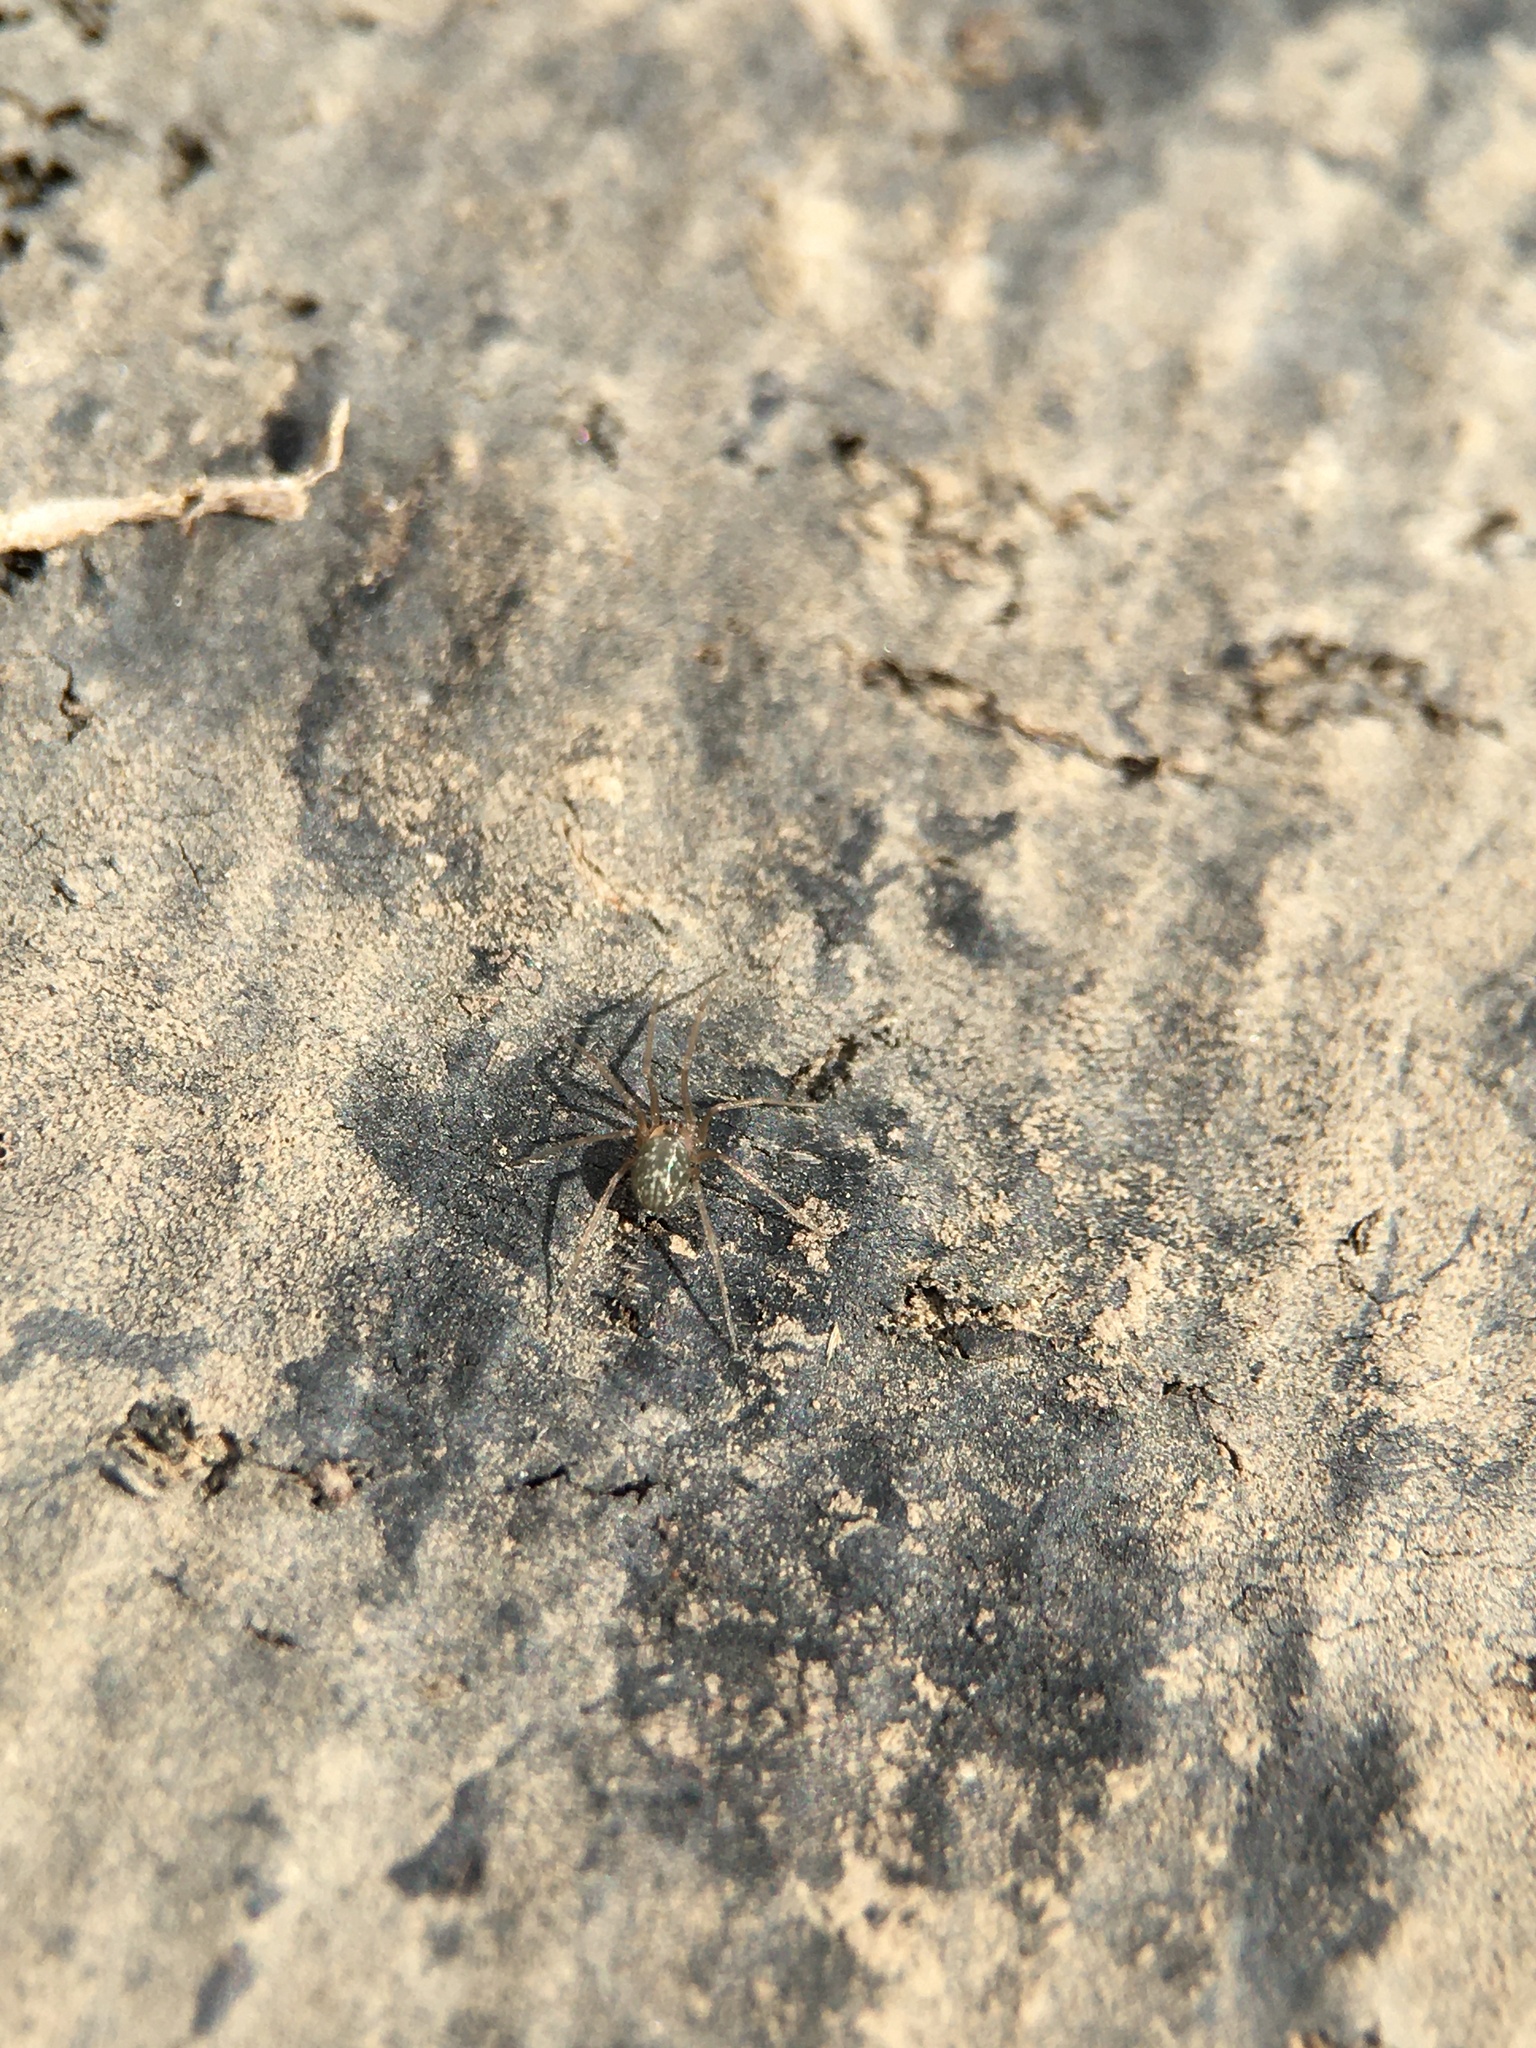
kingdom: Animalia
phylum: Arthropoda
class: Arachnida
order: Araneae
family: Pholcidae
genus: Psilochorus
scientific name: Psilochorus hesperus
